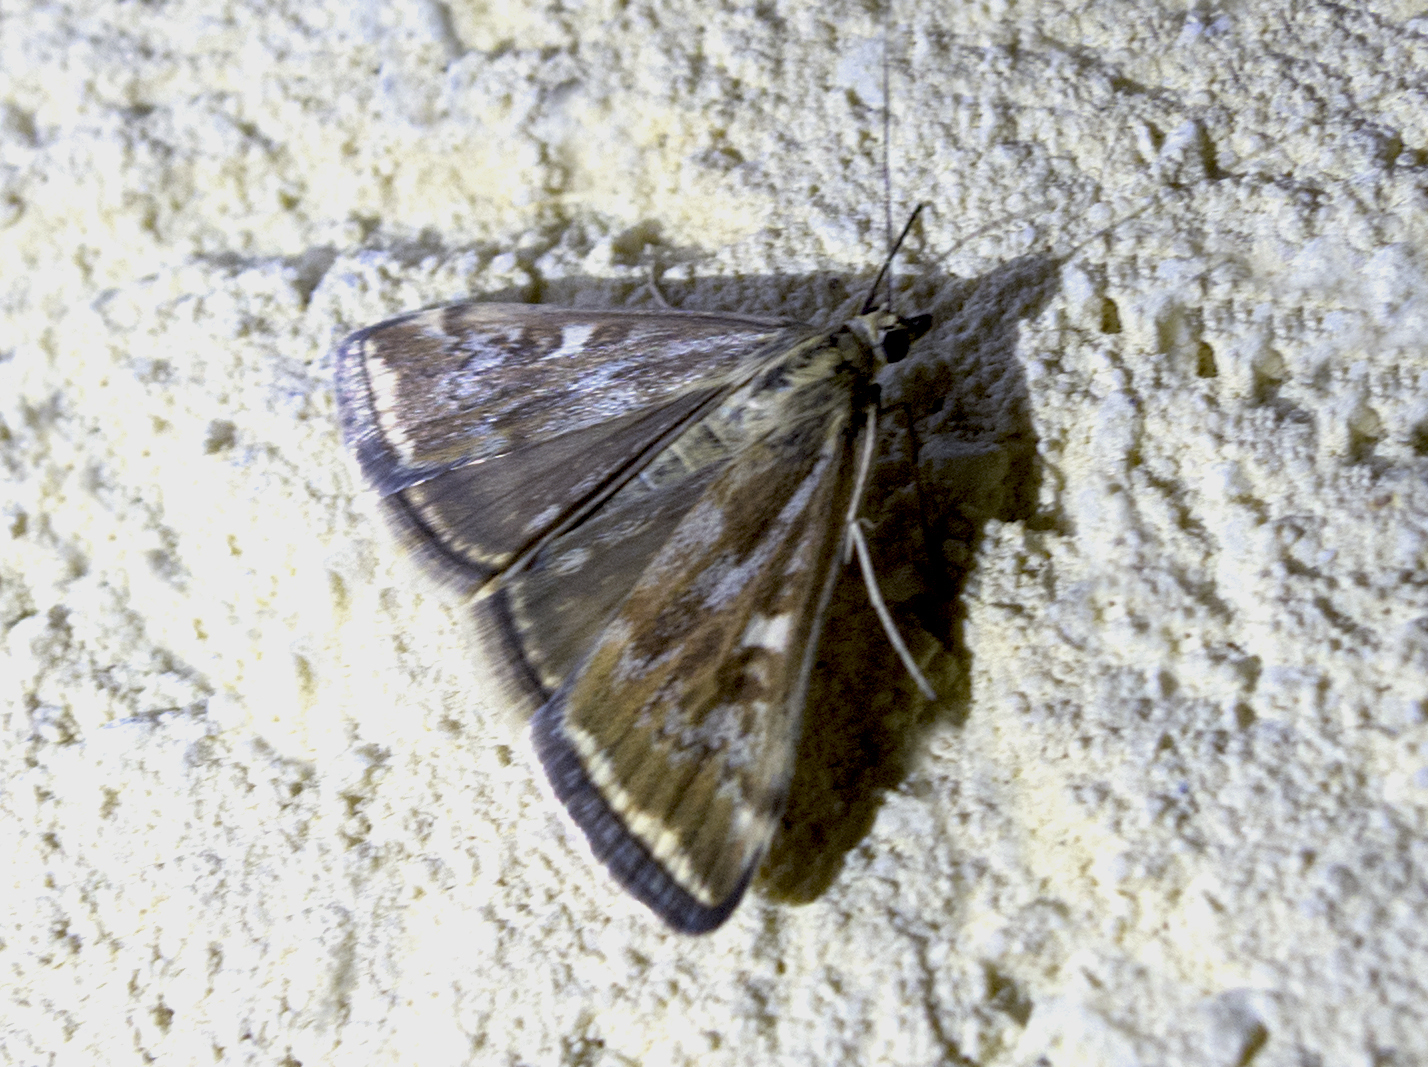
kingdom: Animalia
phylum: Arthropoda
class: Insecta
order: Lepidoptera
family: Crambidae
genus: Loxostege
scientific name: Loxostege sticticalis
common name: Crambid moth
